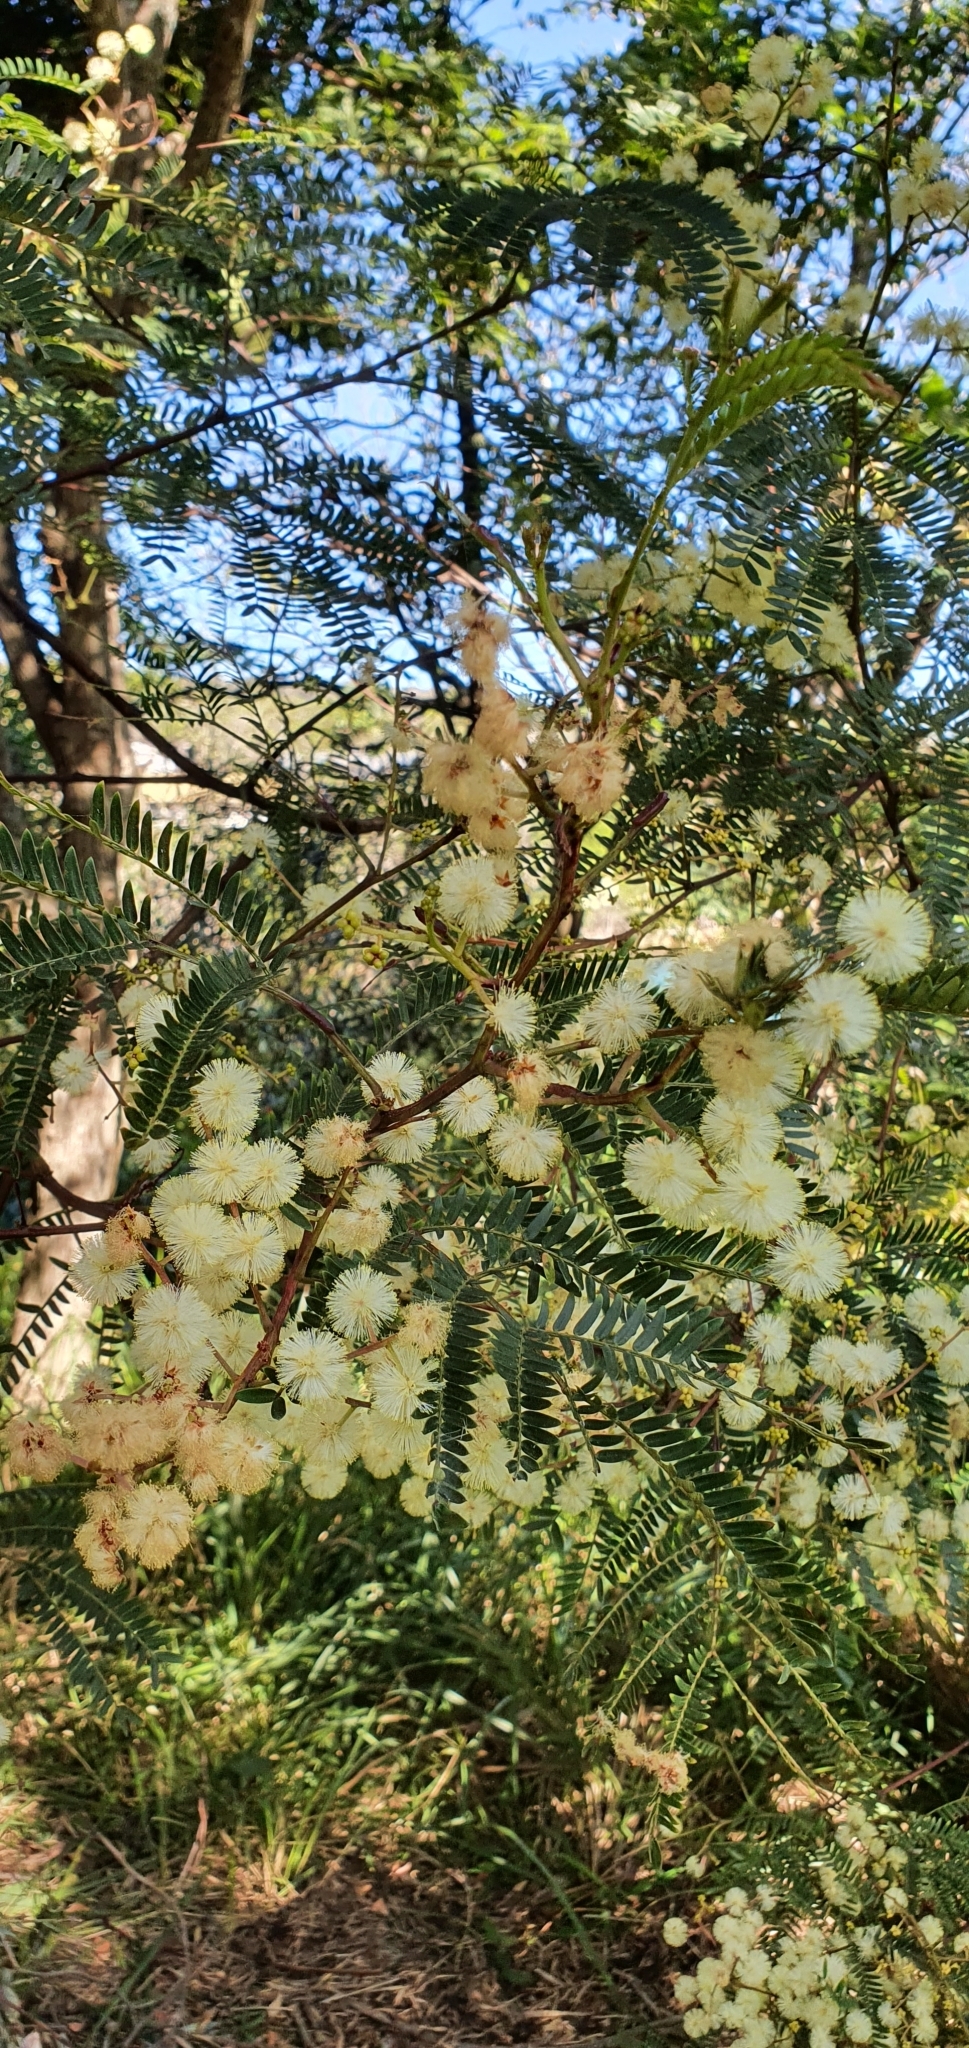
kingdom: Plantae
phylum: Tracheophyta
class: Magnoliopsida
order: Fabales
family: Fabaceae
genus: Acacia
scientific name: Acacia terminalis
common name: Cedar wattle
